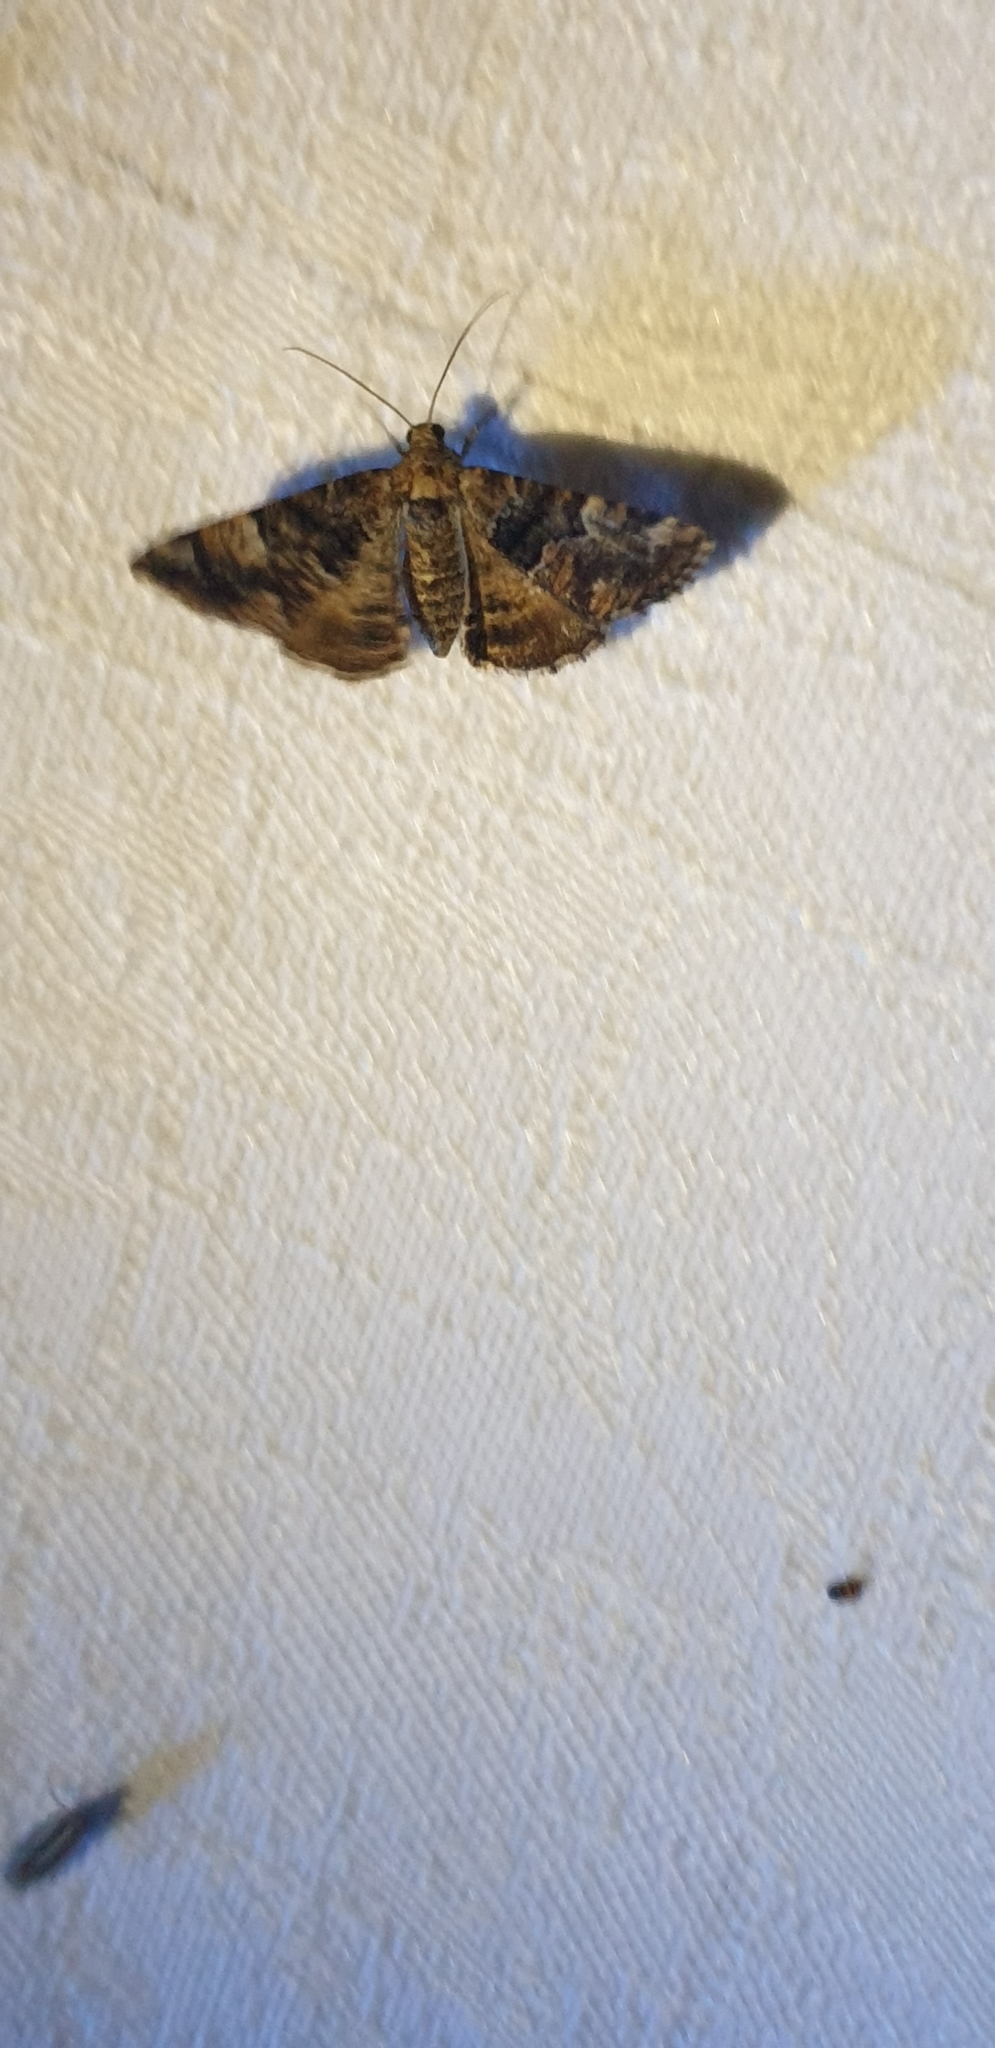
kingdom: Animalia
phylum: Arthropoda
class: Insecta
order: Lepidoptera
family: Geometridae
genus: Aporoctena
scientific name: Aporoctena scierodes
